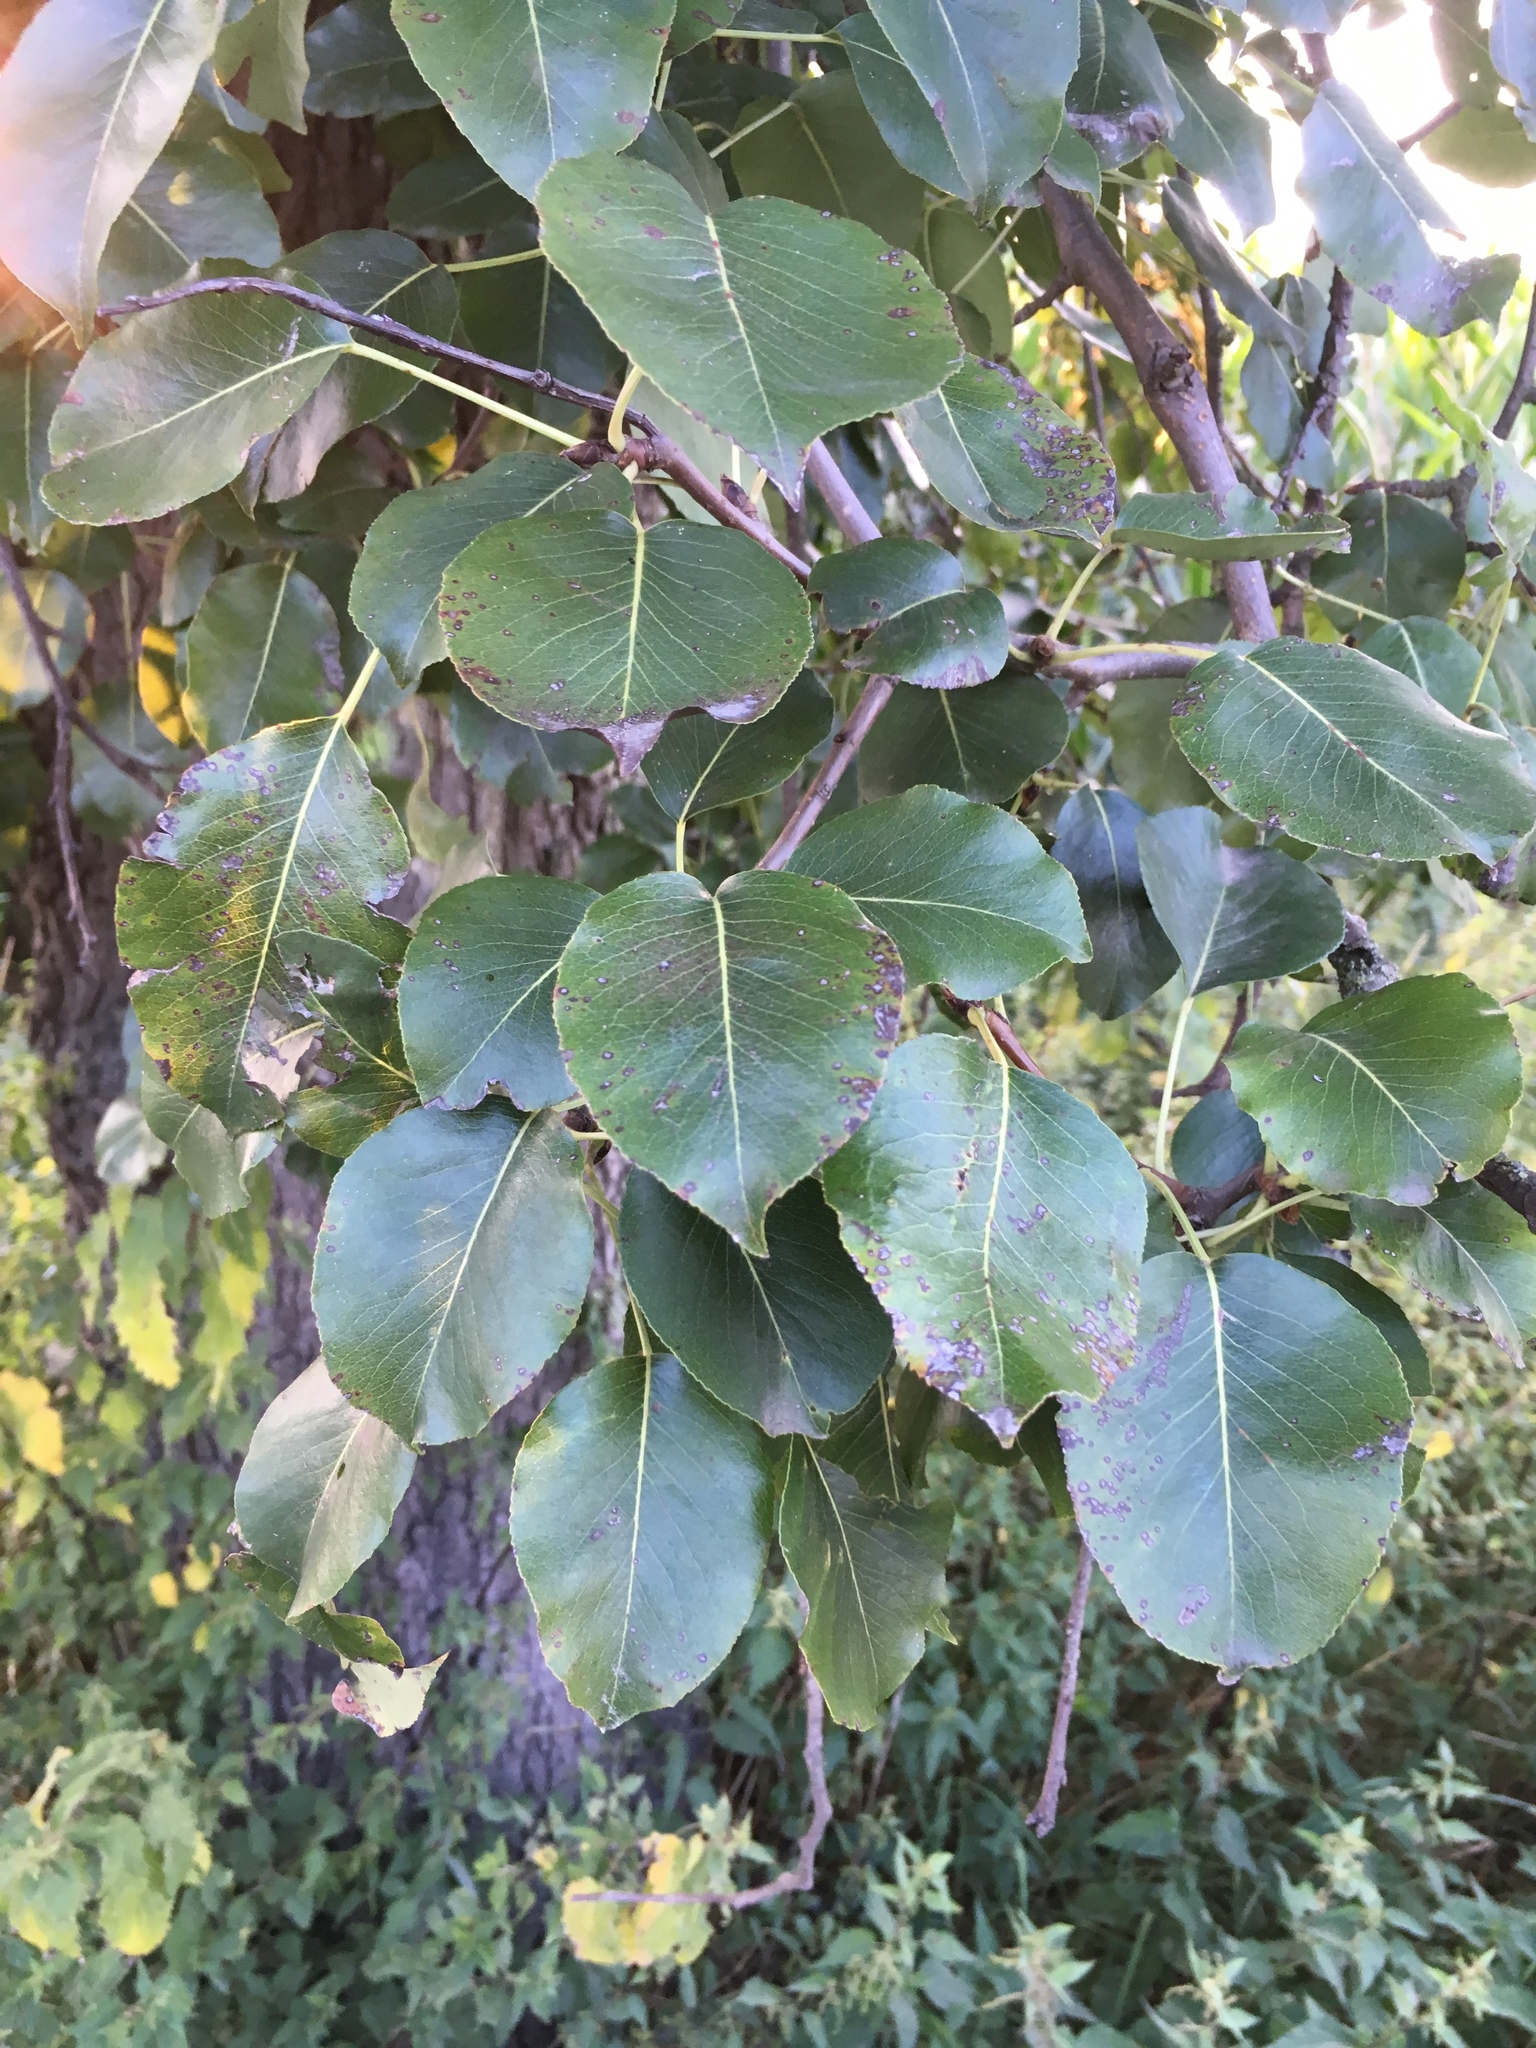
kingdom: Plantae
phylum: Tracheophyta
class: Magnoliopsida
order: Rosales
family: Rosaceae
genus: Pyrus
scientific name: Pyrus communis
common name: Pear
